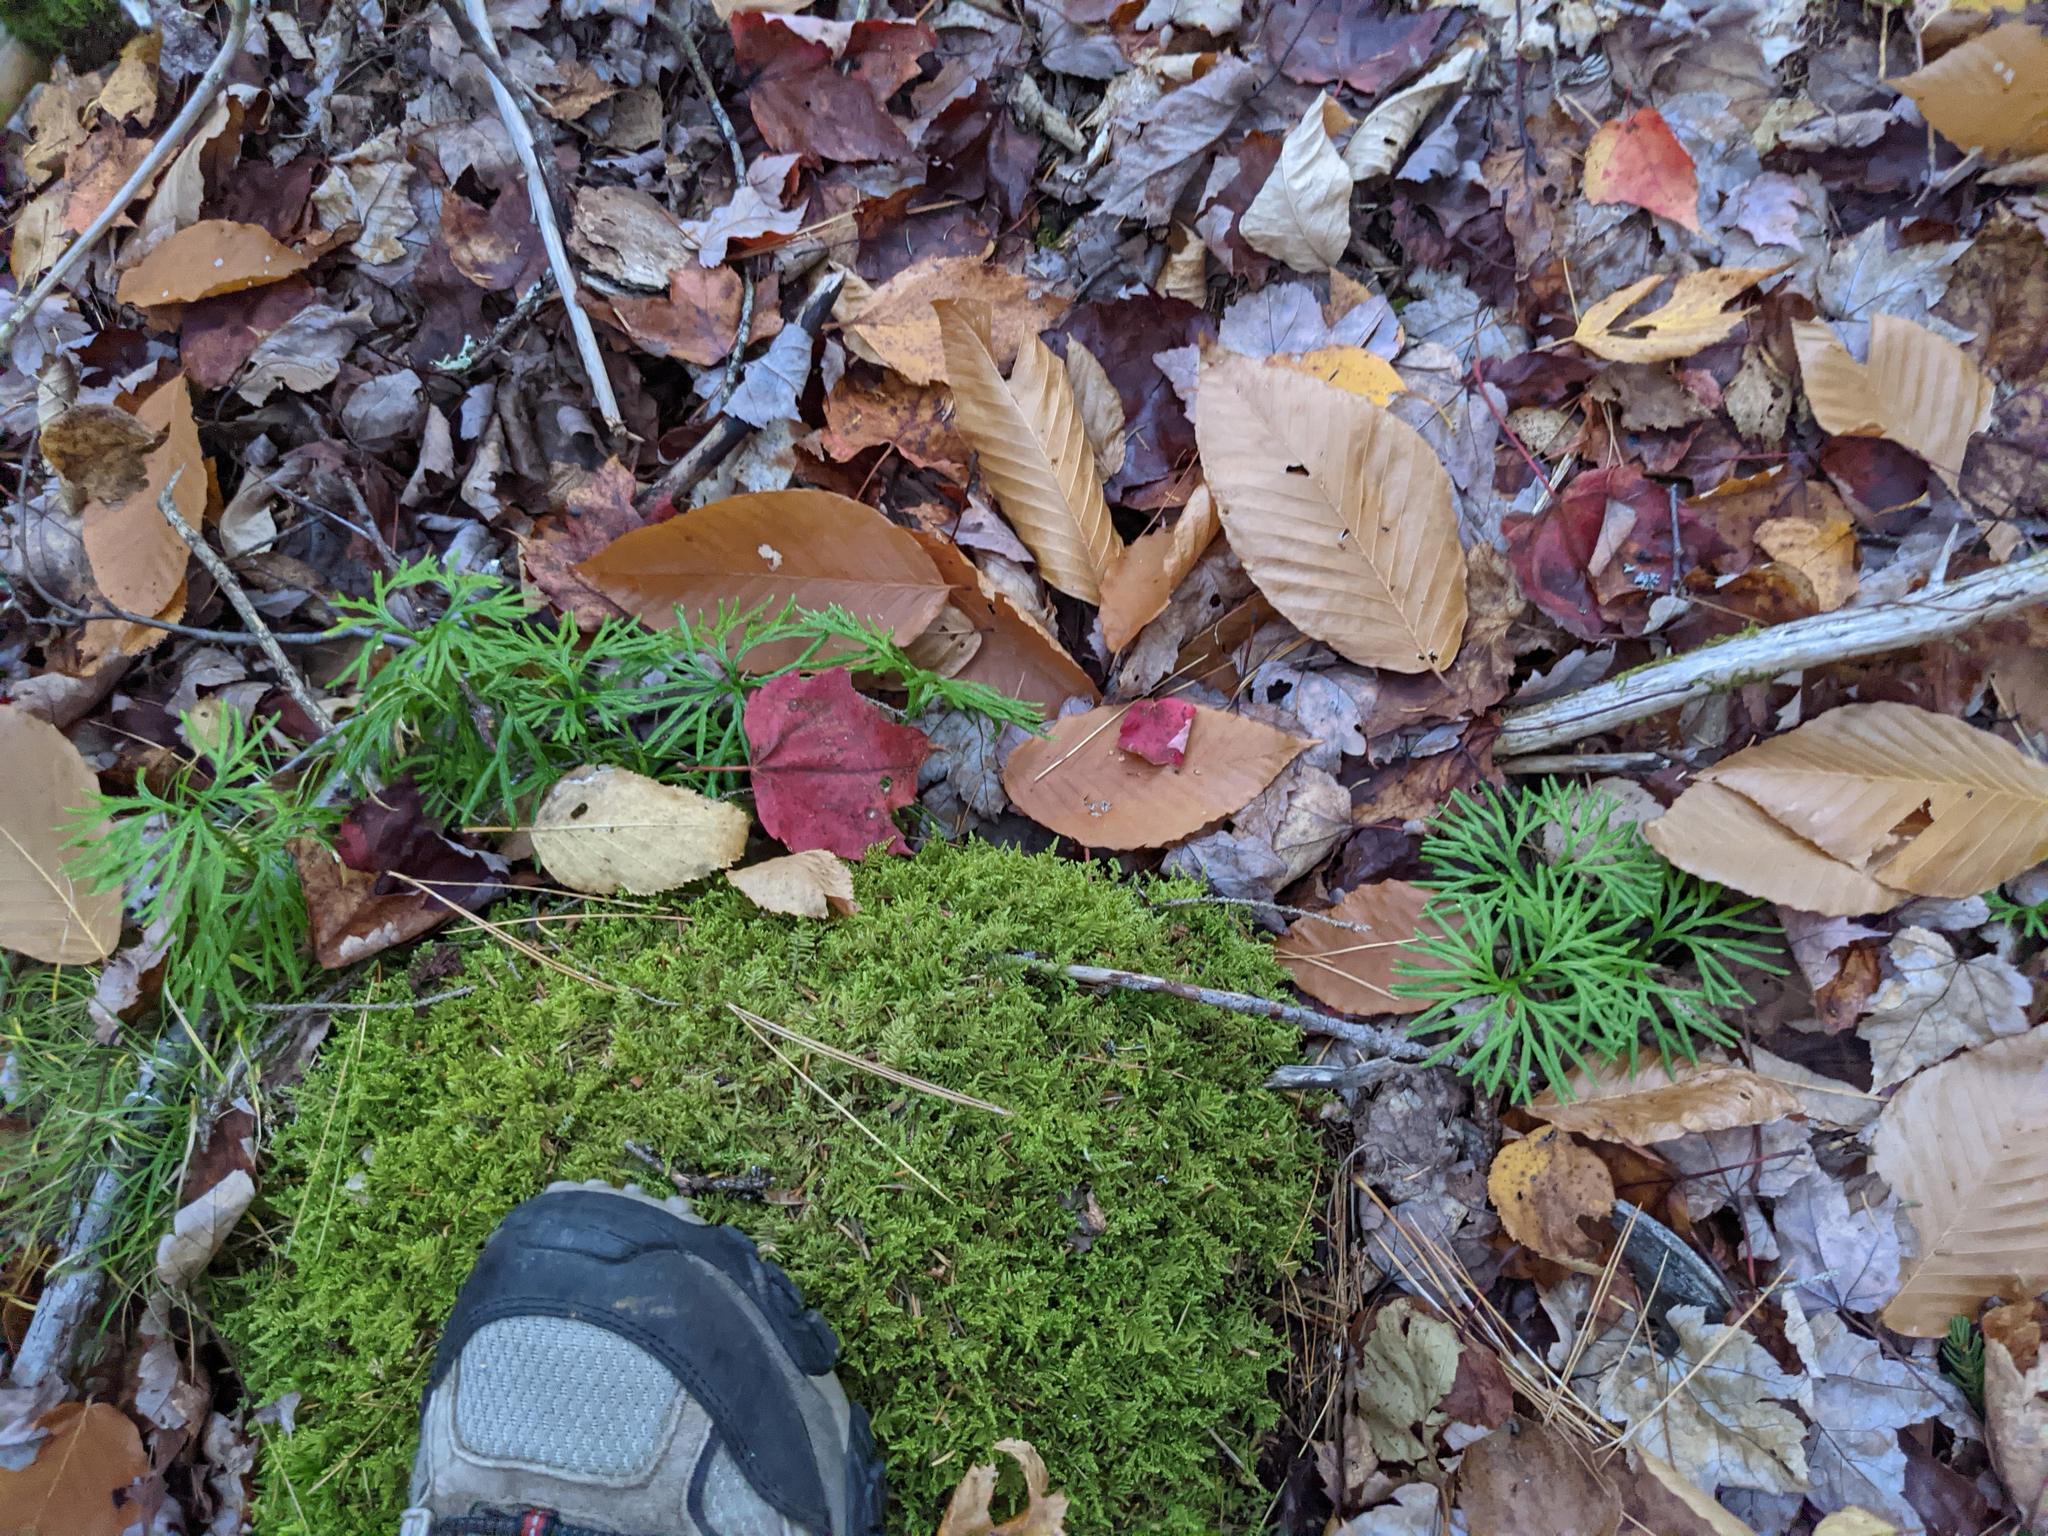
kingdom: Plantae
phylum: Tracheophyta
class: Lycopodiopsida
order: Lycopodiales
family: Lycopodiaceae
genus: Diphasiastrum
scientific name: Diphasiastrum digitatum
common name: Southern running-pine
